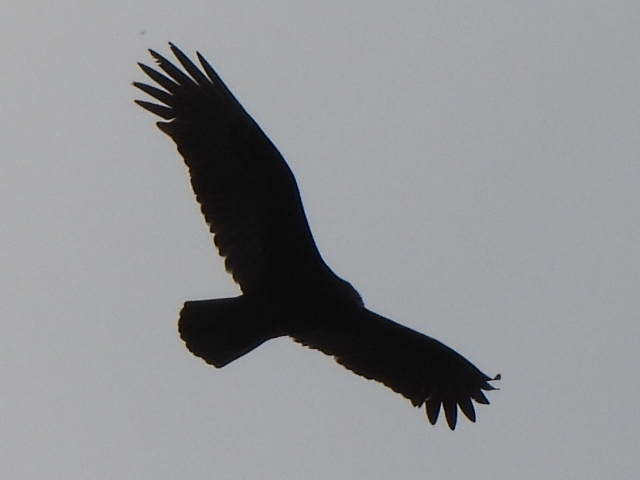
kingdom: Animalia
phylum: Chordata
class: Aves
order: Accipitriformes
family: Cathartidae
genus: Cathartes
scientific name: Cathartes aura
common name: Turkey vulture
